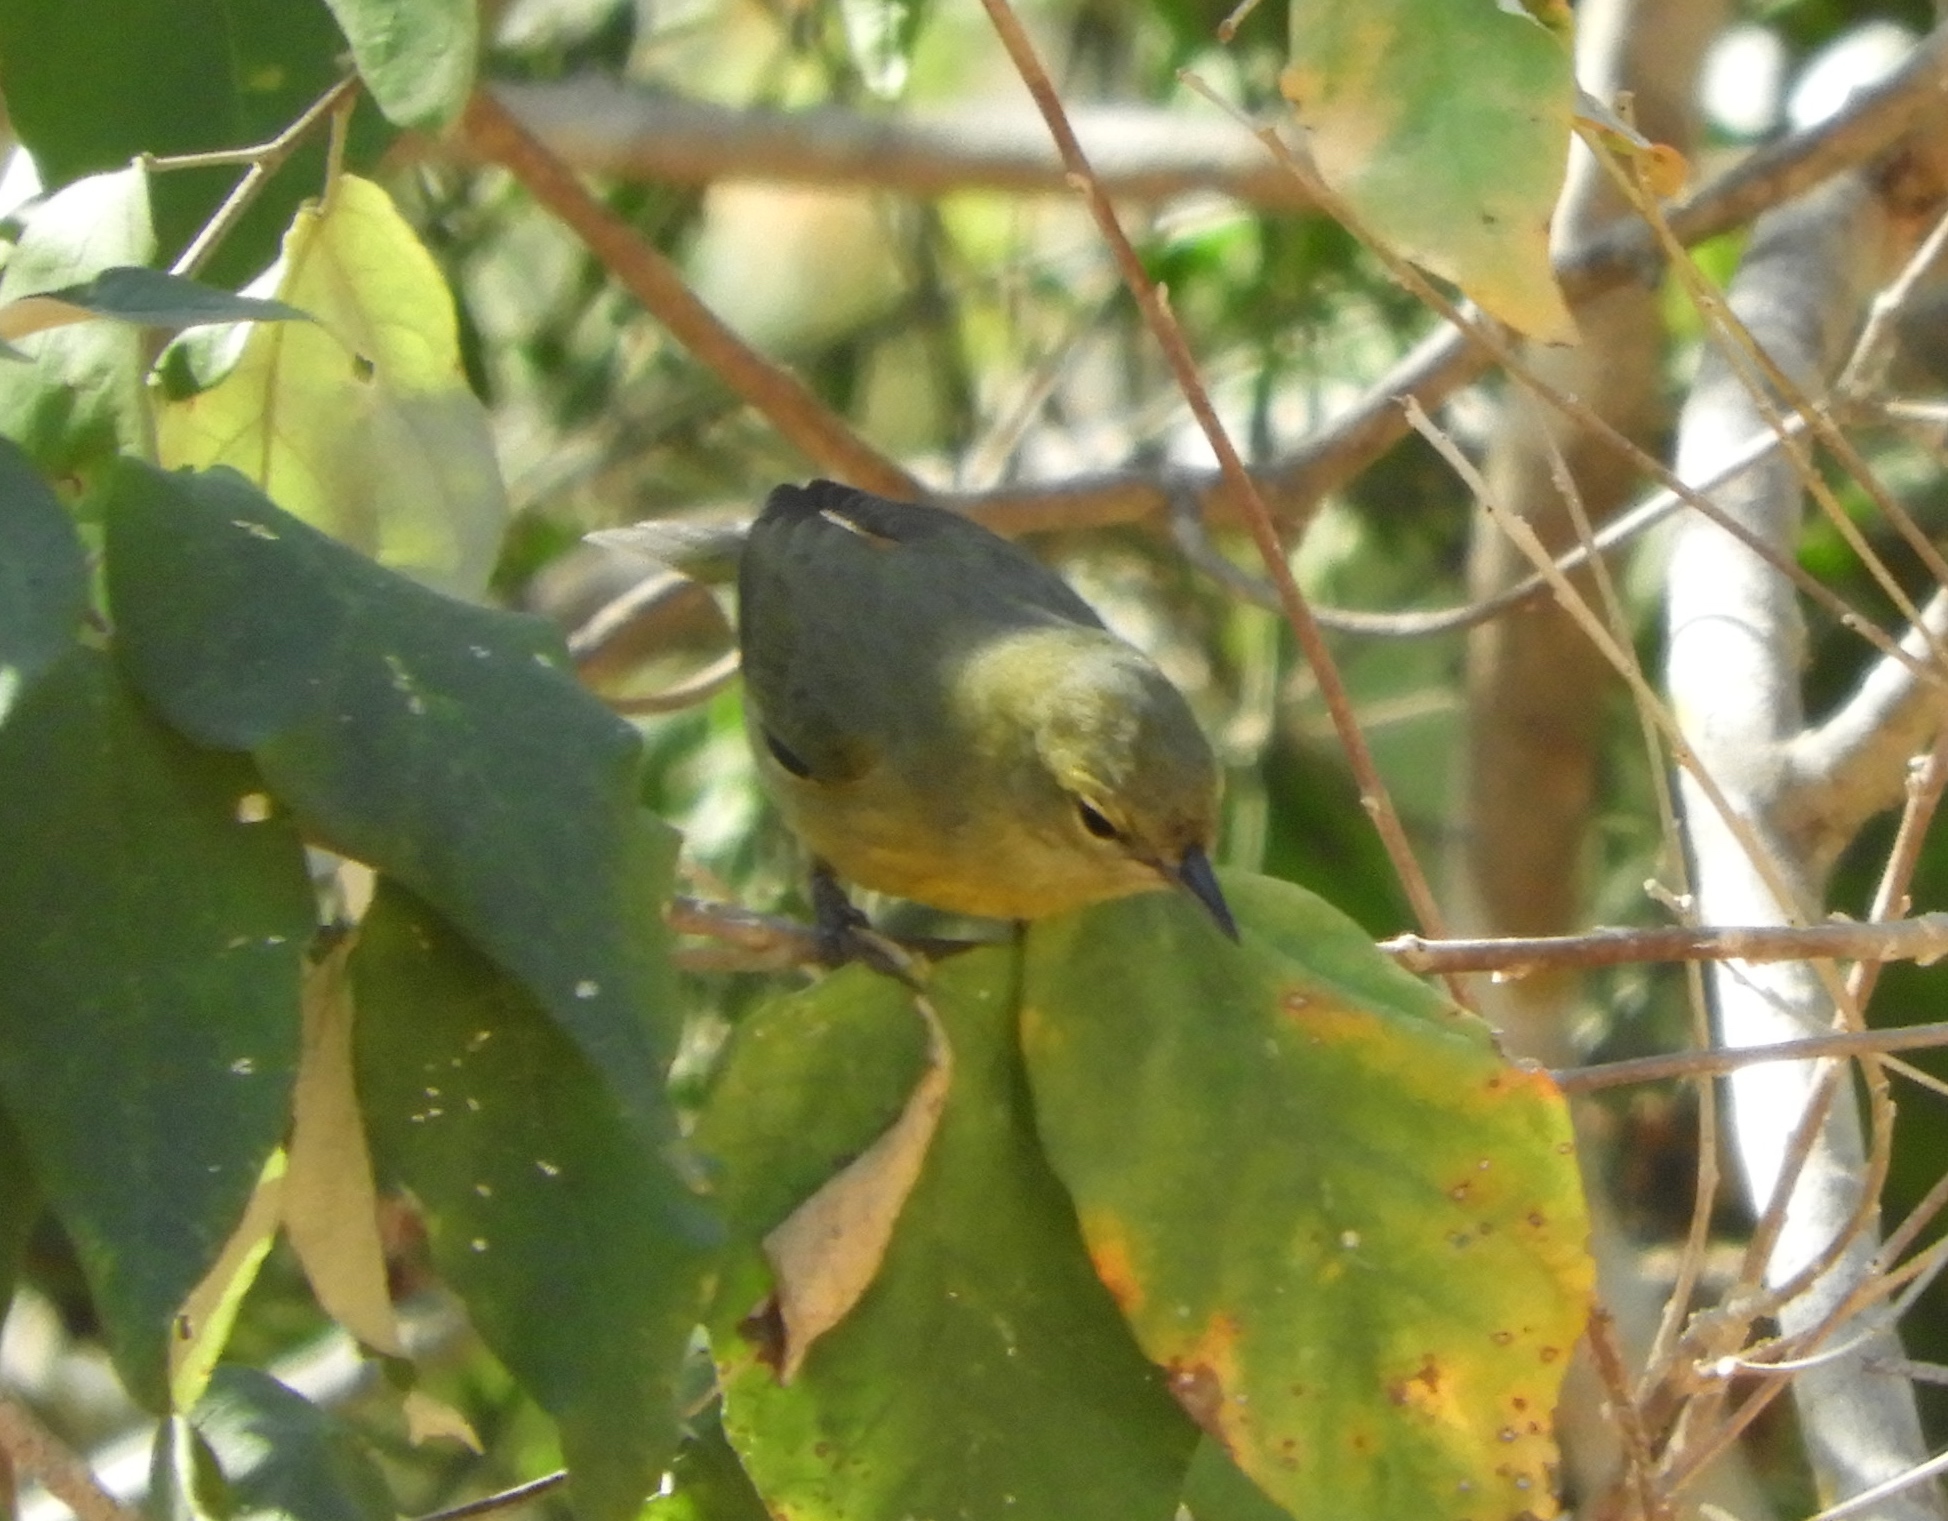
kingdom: Animalia
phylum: Chordata
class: Aves
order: Passeriformes
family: Parulidae
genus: Leiothlypis
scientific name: Leiothlypis celata
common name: Orange-crowned warbler
